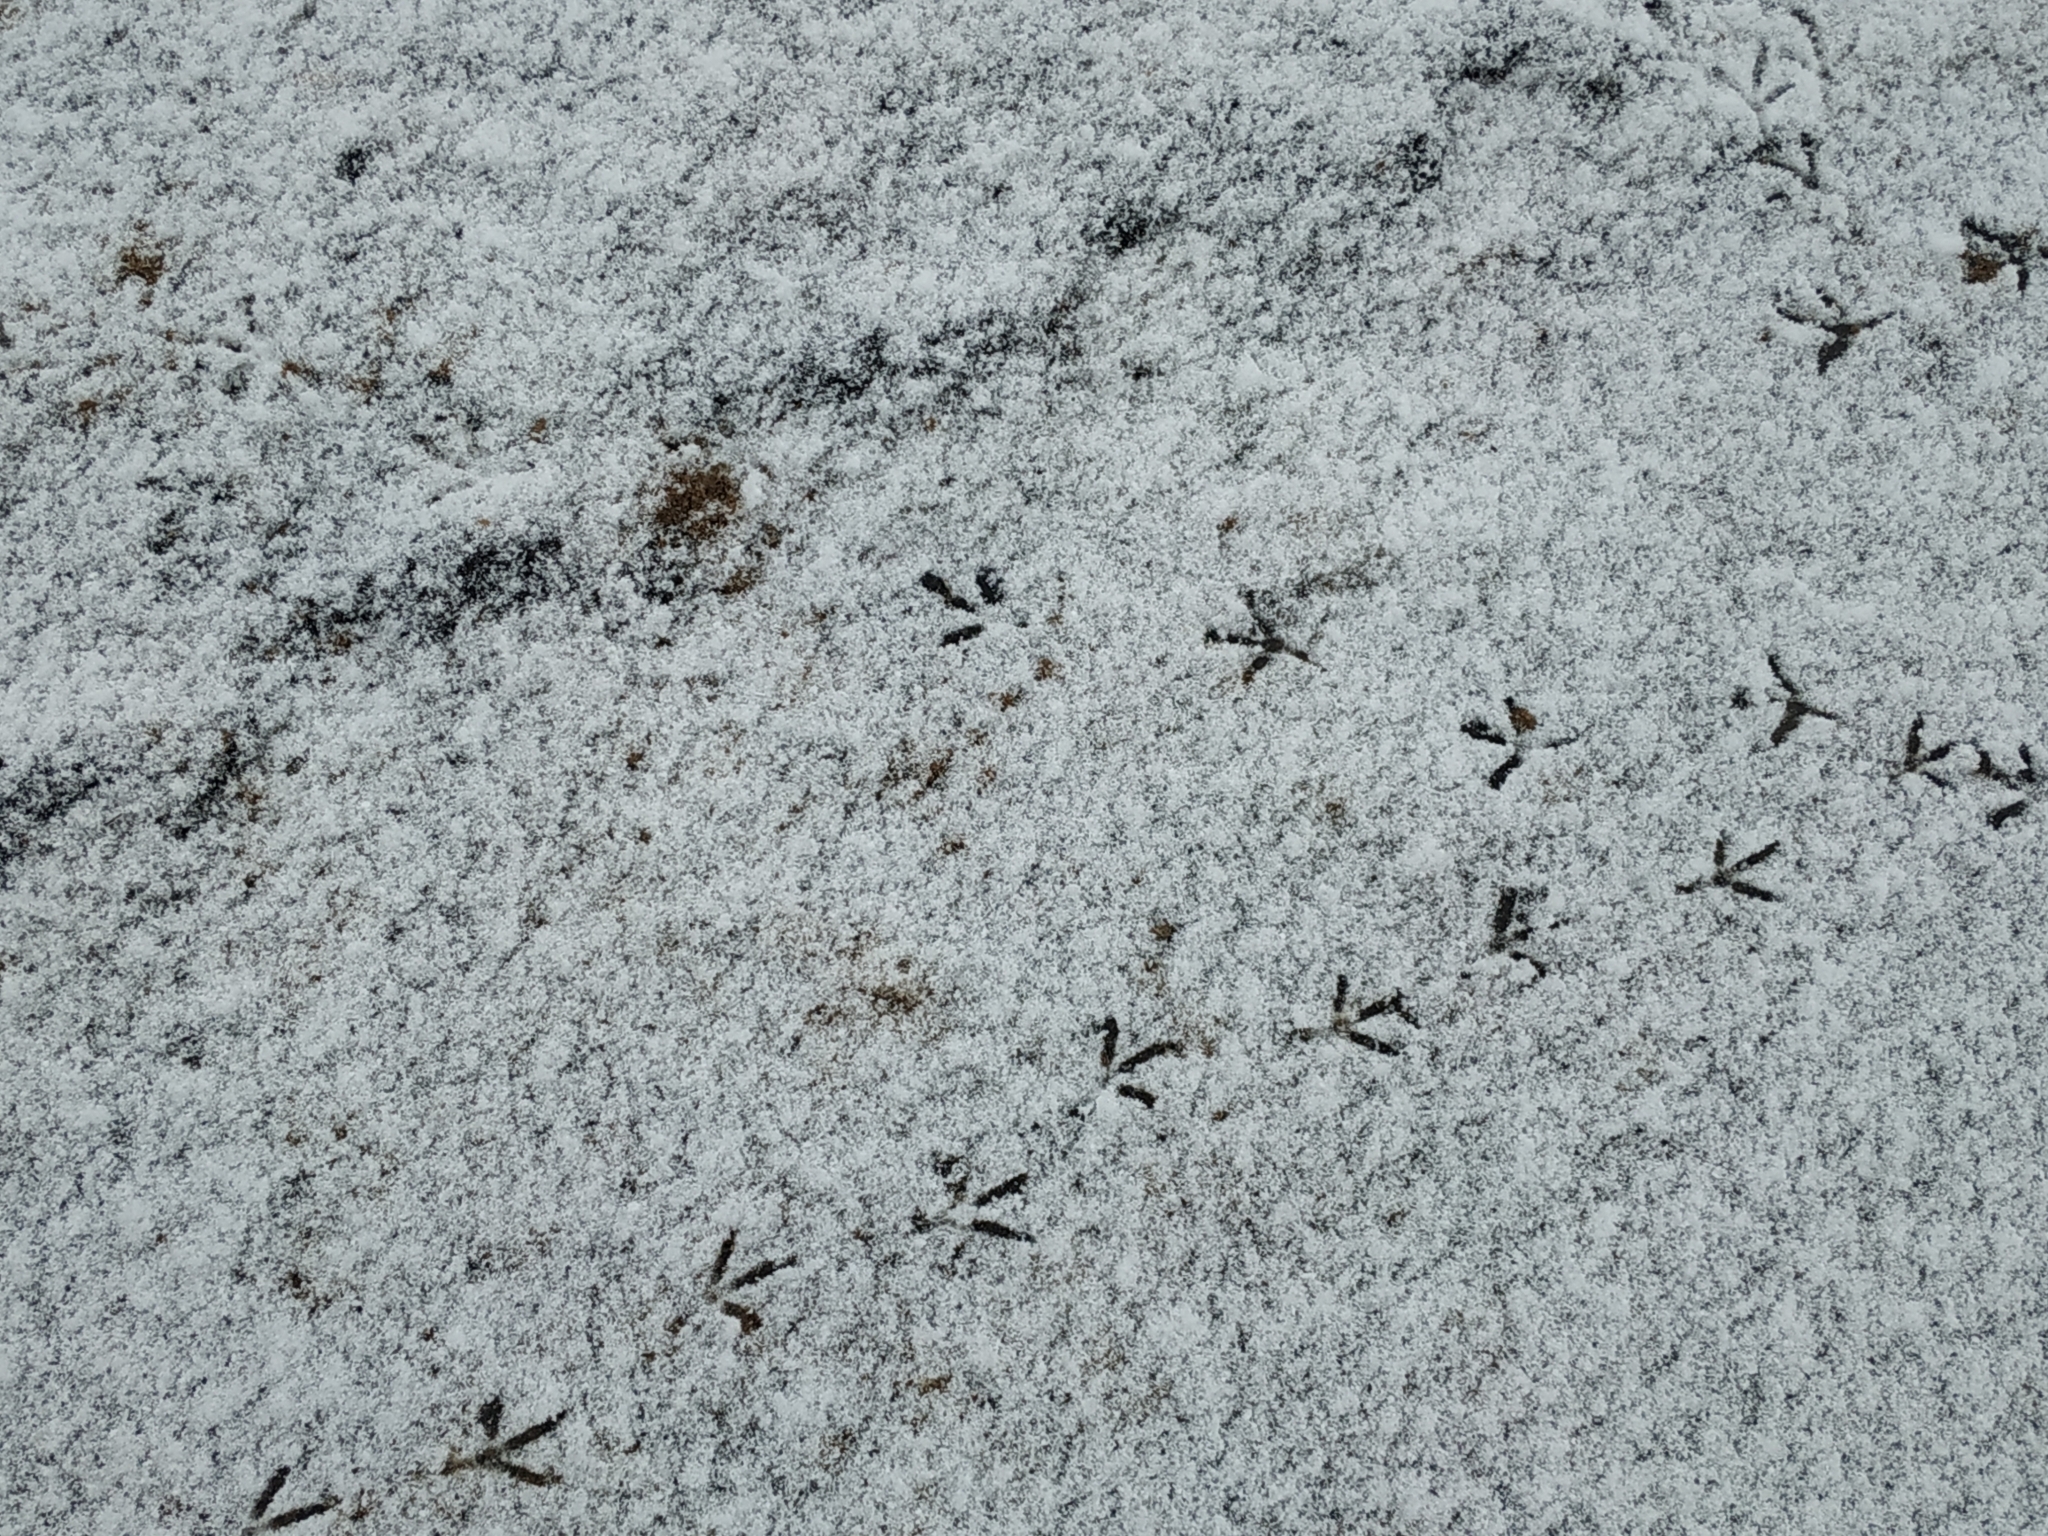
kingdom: Animalia
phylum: Chordata
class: Aves
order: Columbiformes
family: Columbidae
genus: Columba
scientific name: Columba livia
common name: Rock pigeon
